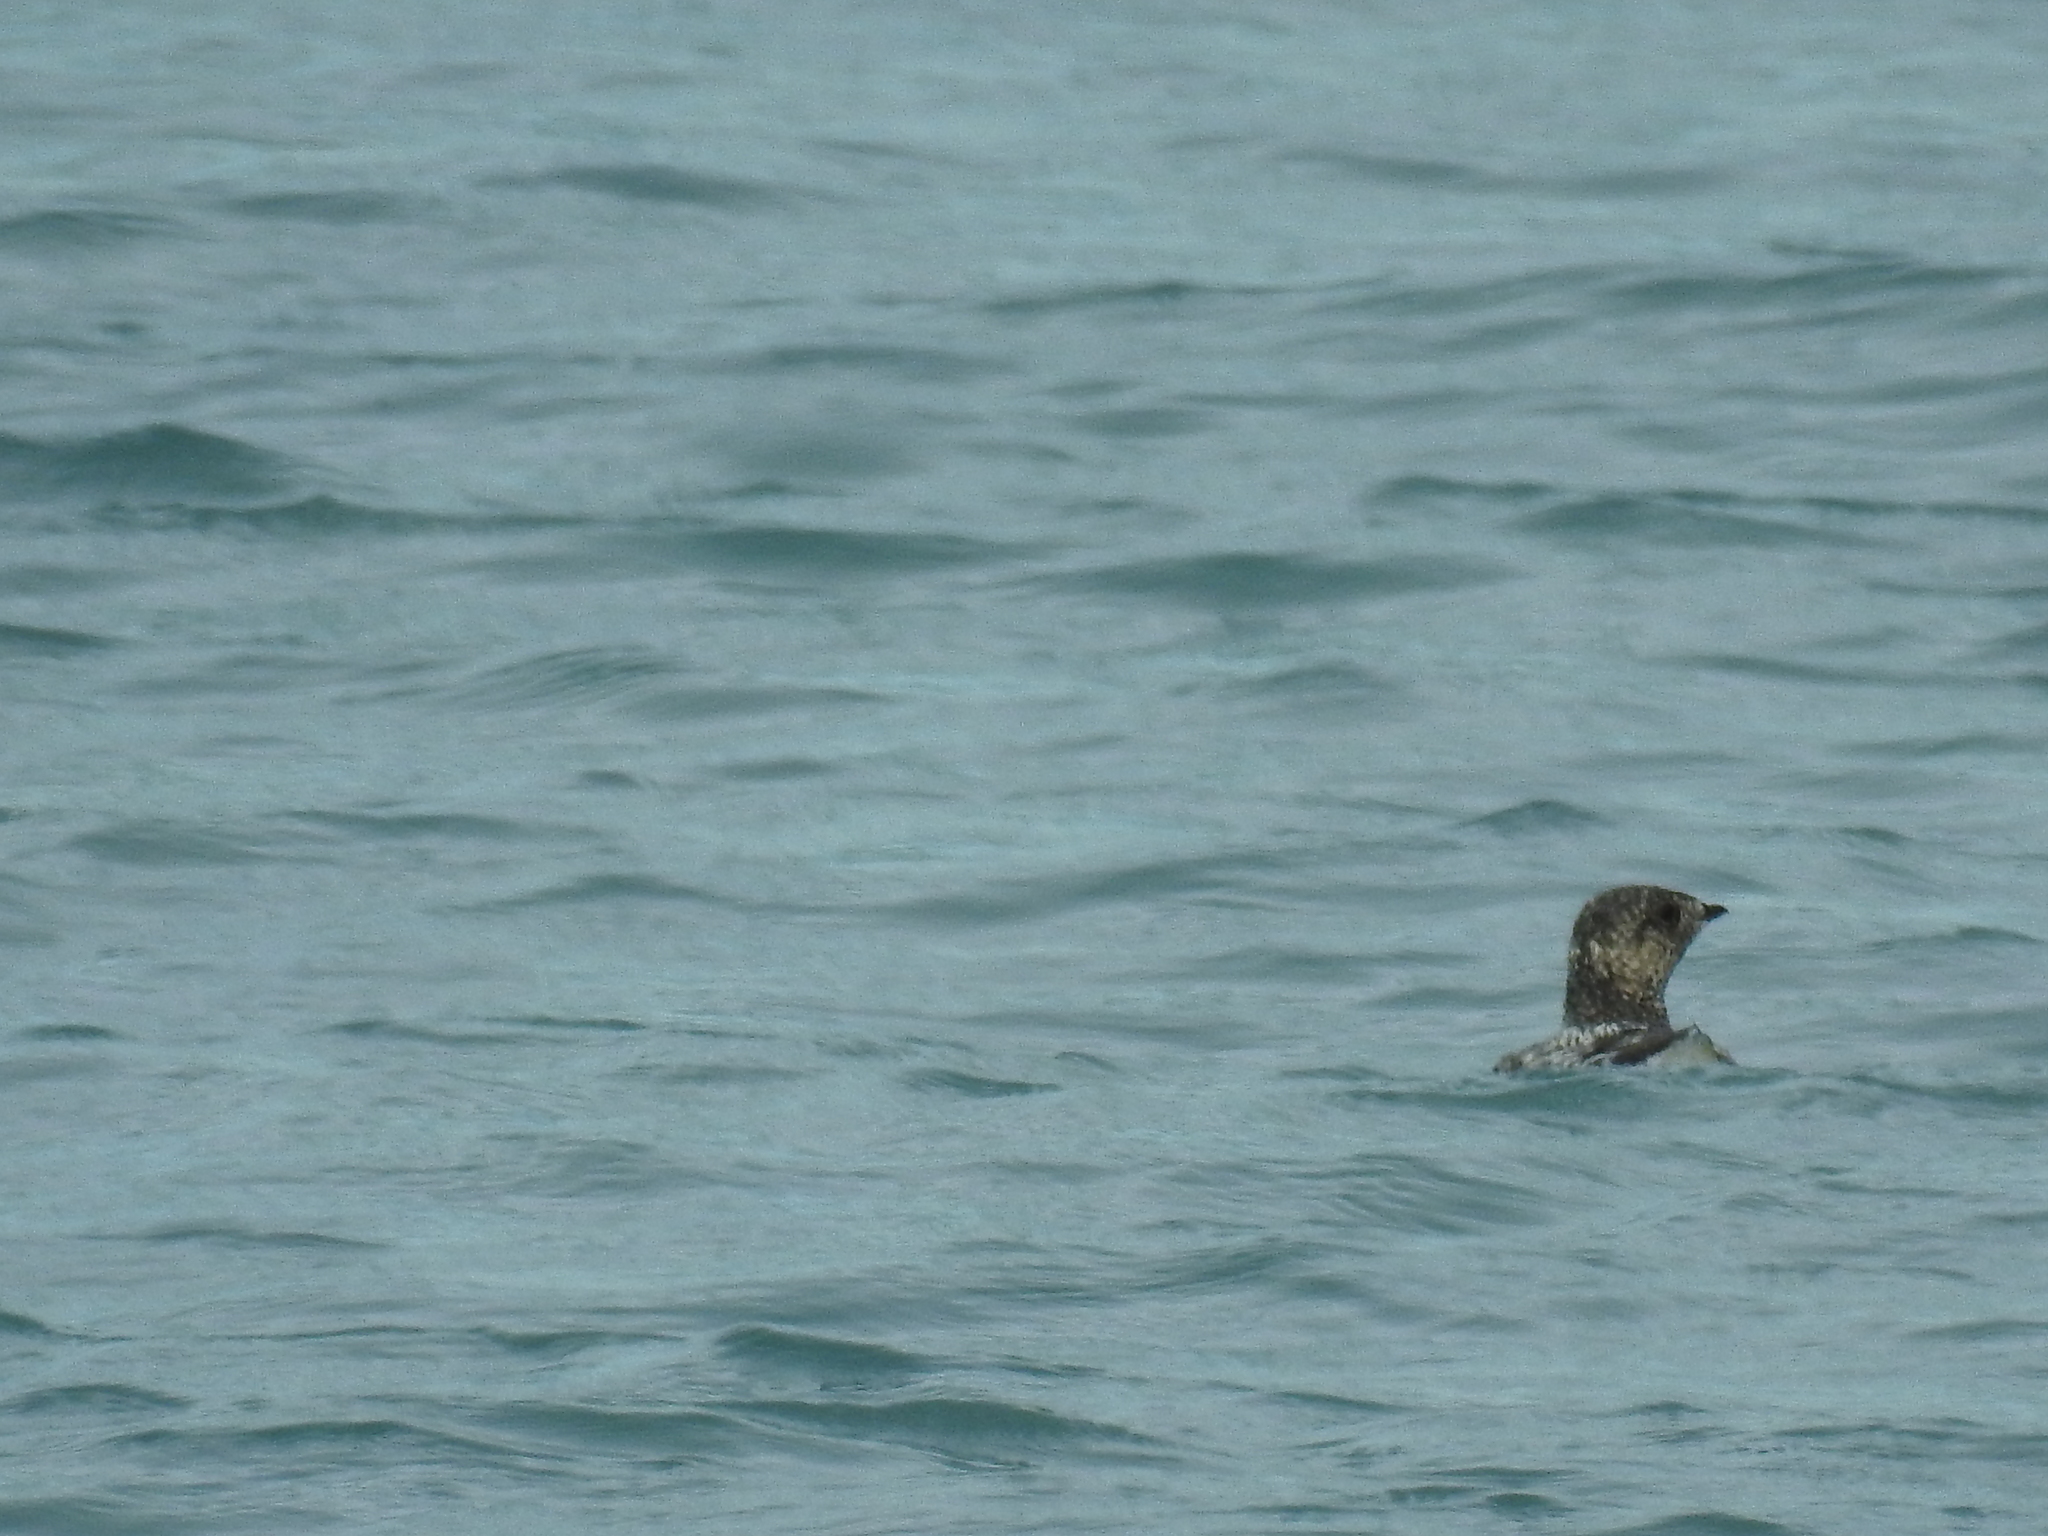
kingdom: Animalia
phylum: Chordata
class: Aves
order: Charadriiformes
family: Alcidae
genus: Brachyramphus
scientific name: Brachyramphus marmoratus
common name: Marbled murrelet
